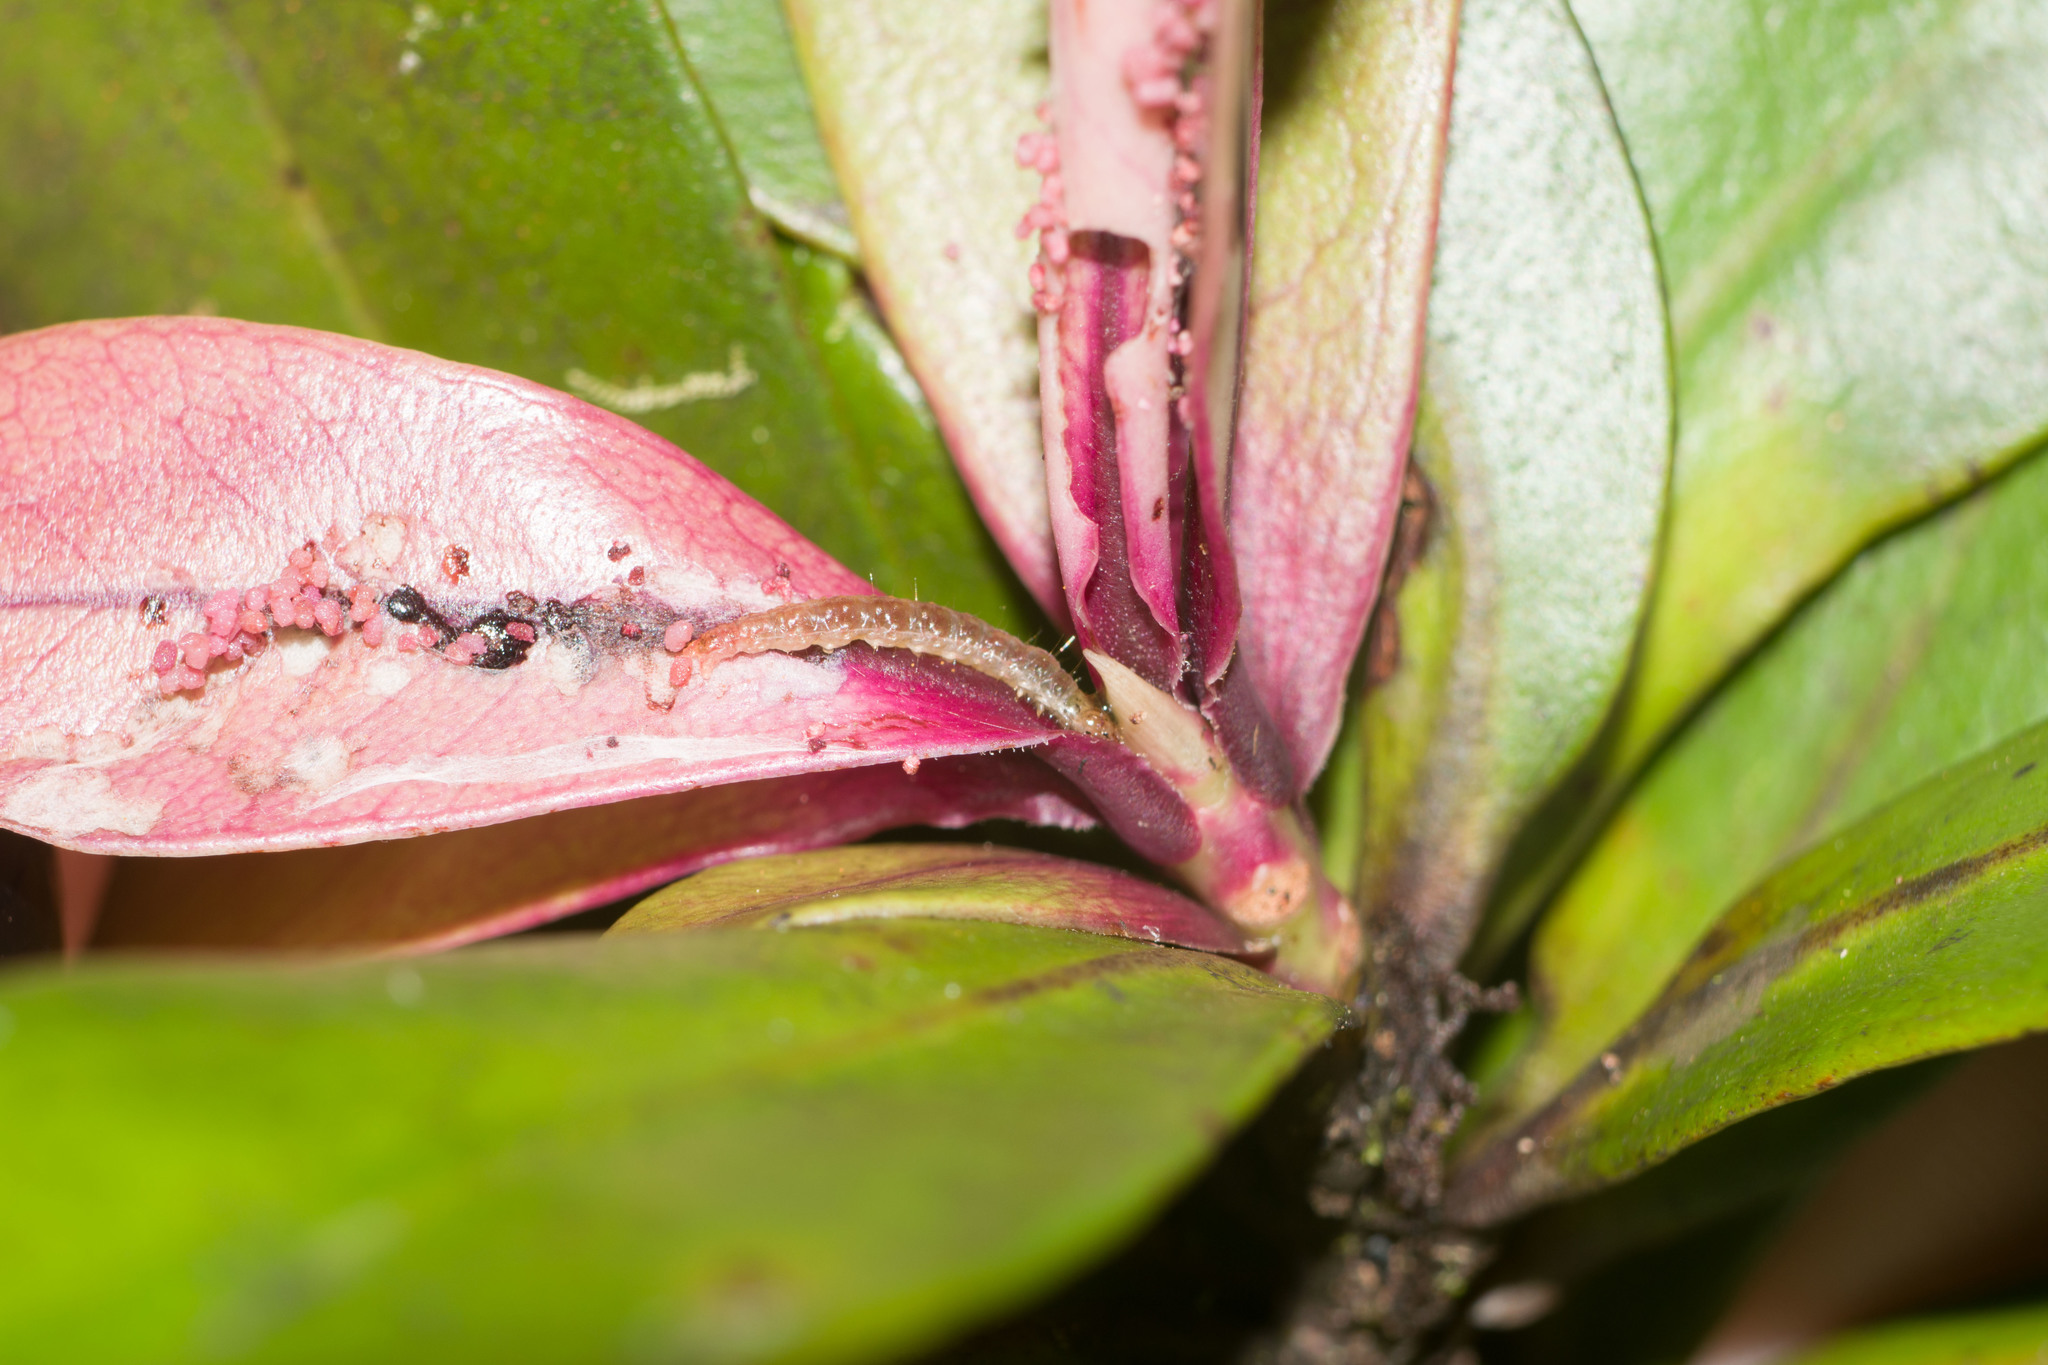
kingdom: Animalia
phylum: Arthropoda
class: Insecta
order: Lepidoptera
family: Tortricidae
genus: Pararrhaptica
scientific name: Pararrhaptica notocosma
